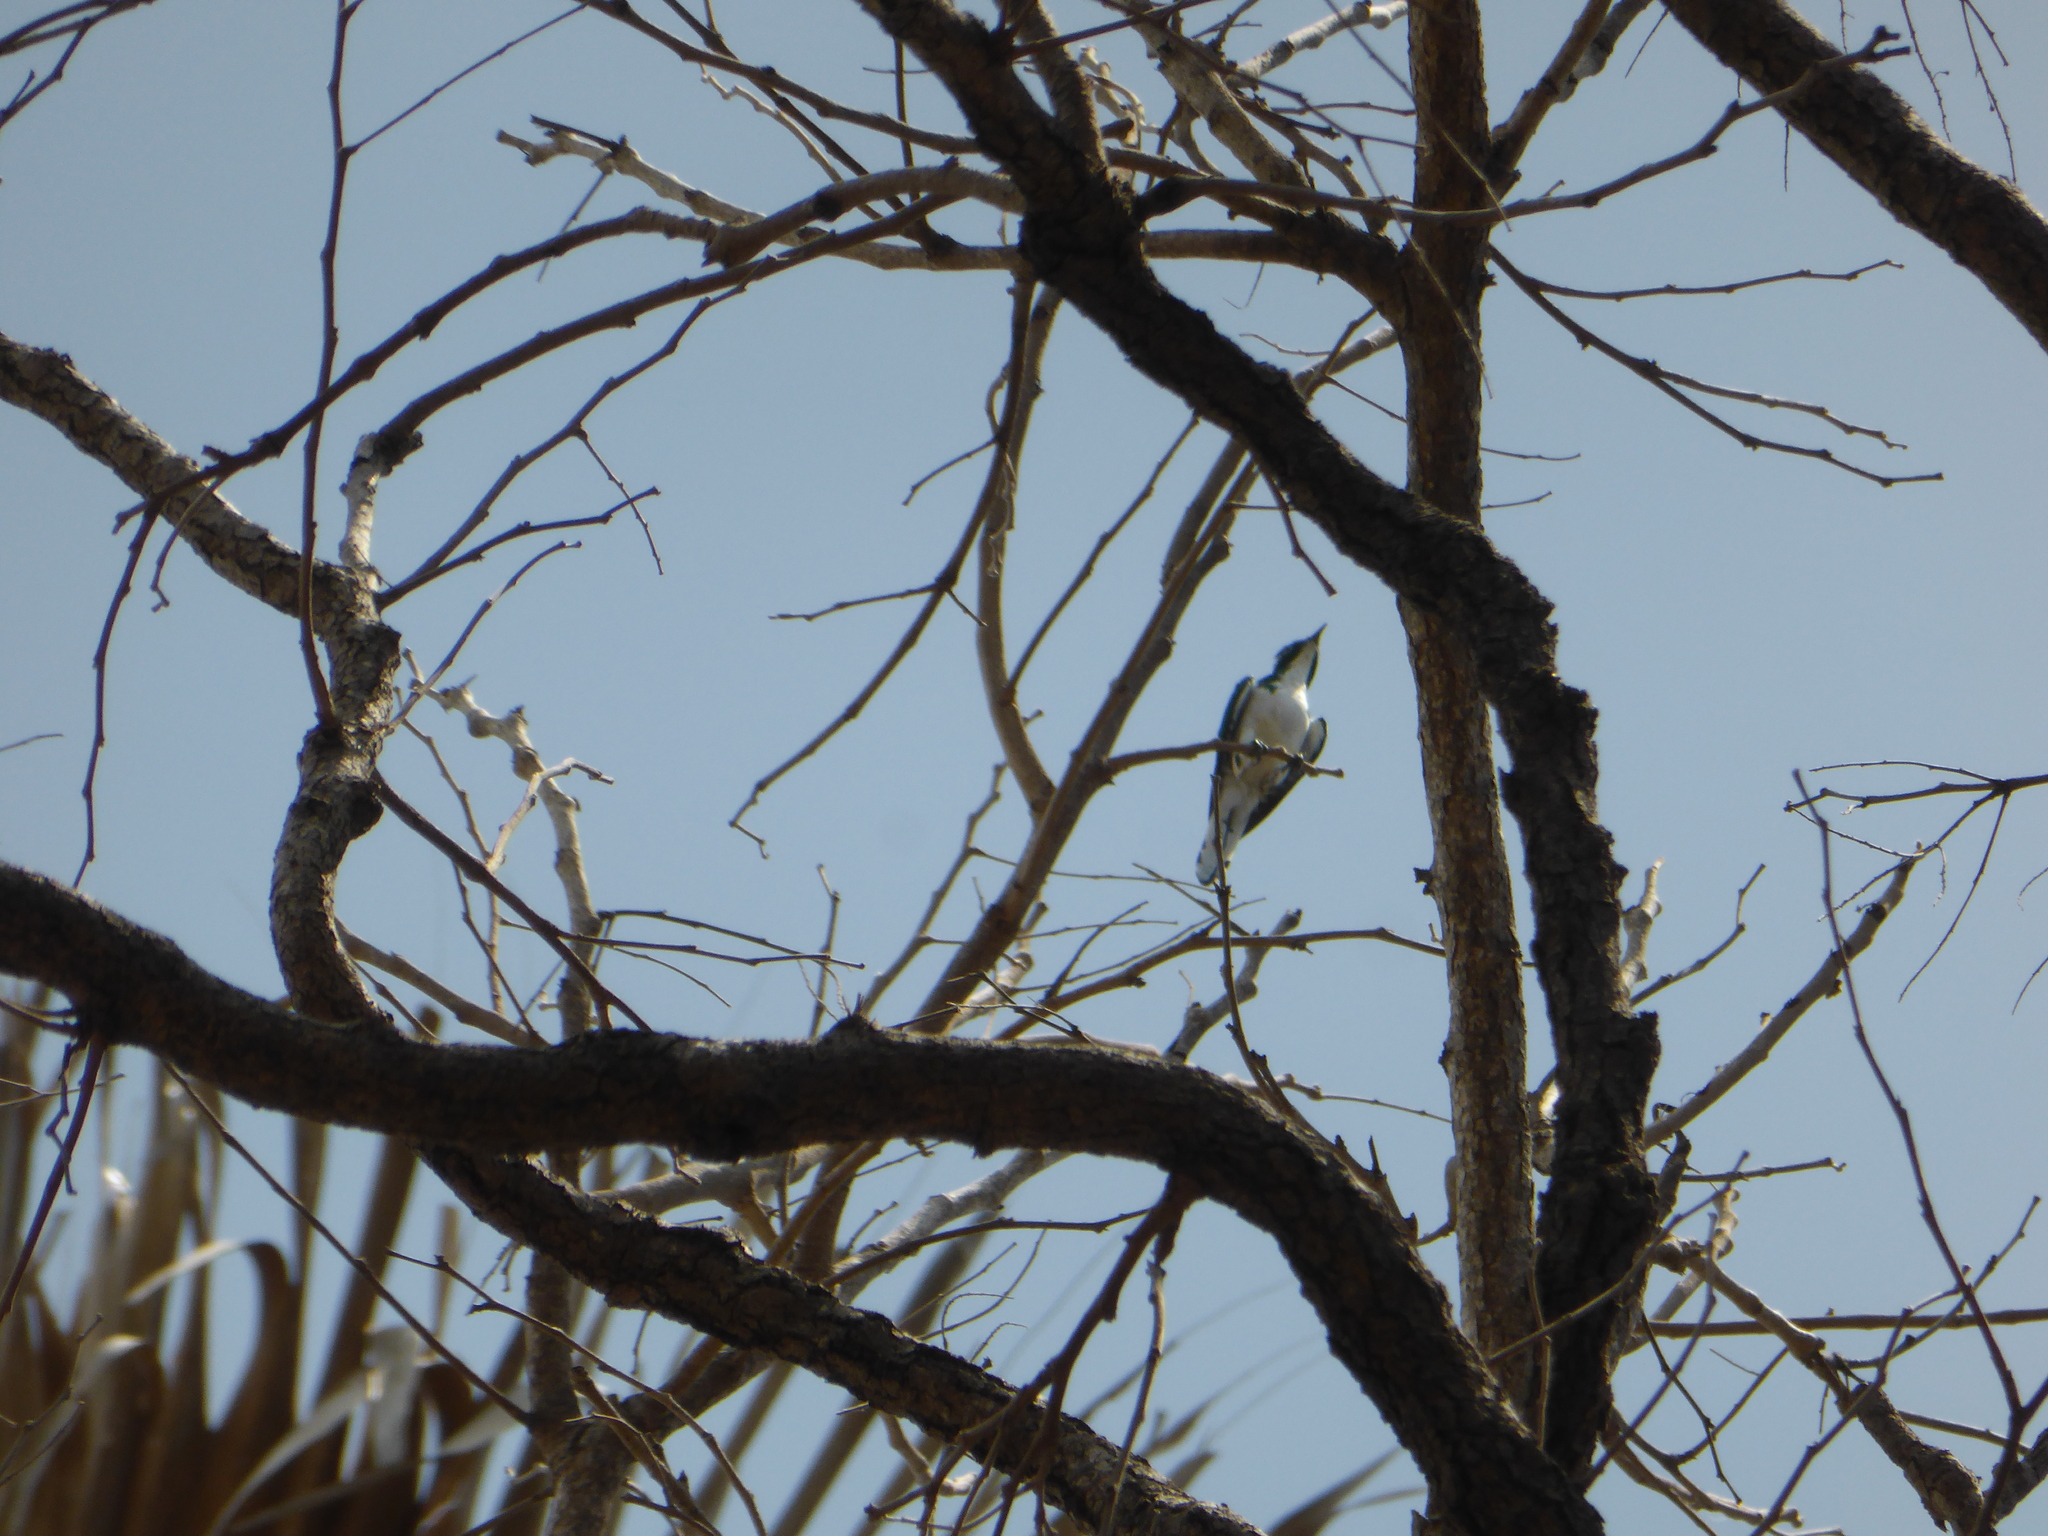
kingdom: Animalia
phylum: Chordata
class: Aves
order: Cuculiformes
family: Cuculidae
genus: Chrysococcyx
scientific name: Chrysococcyx klaas
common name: Klaas's cuckoo
